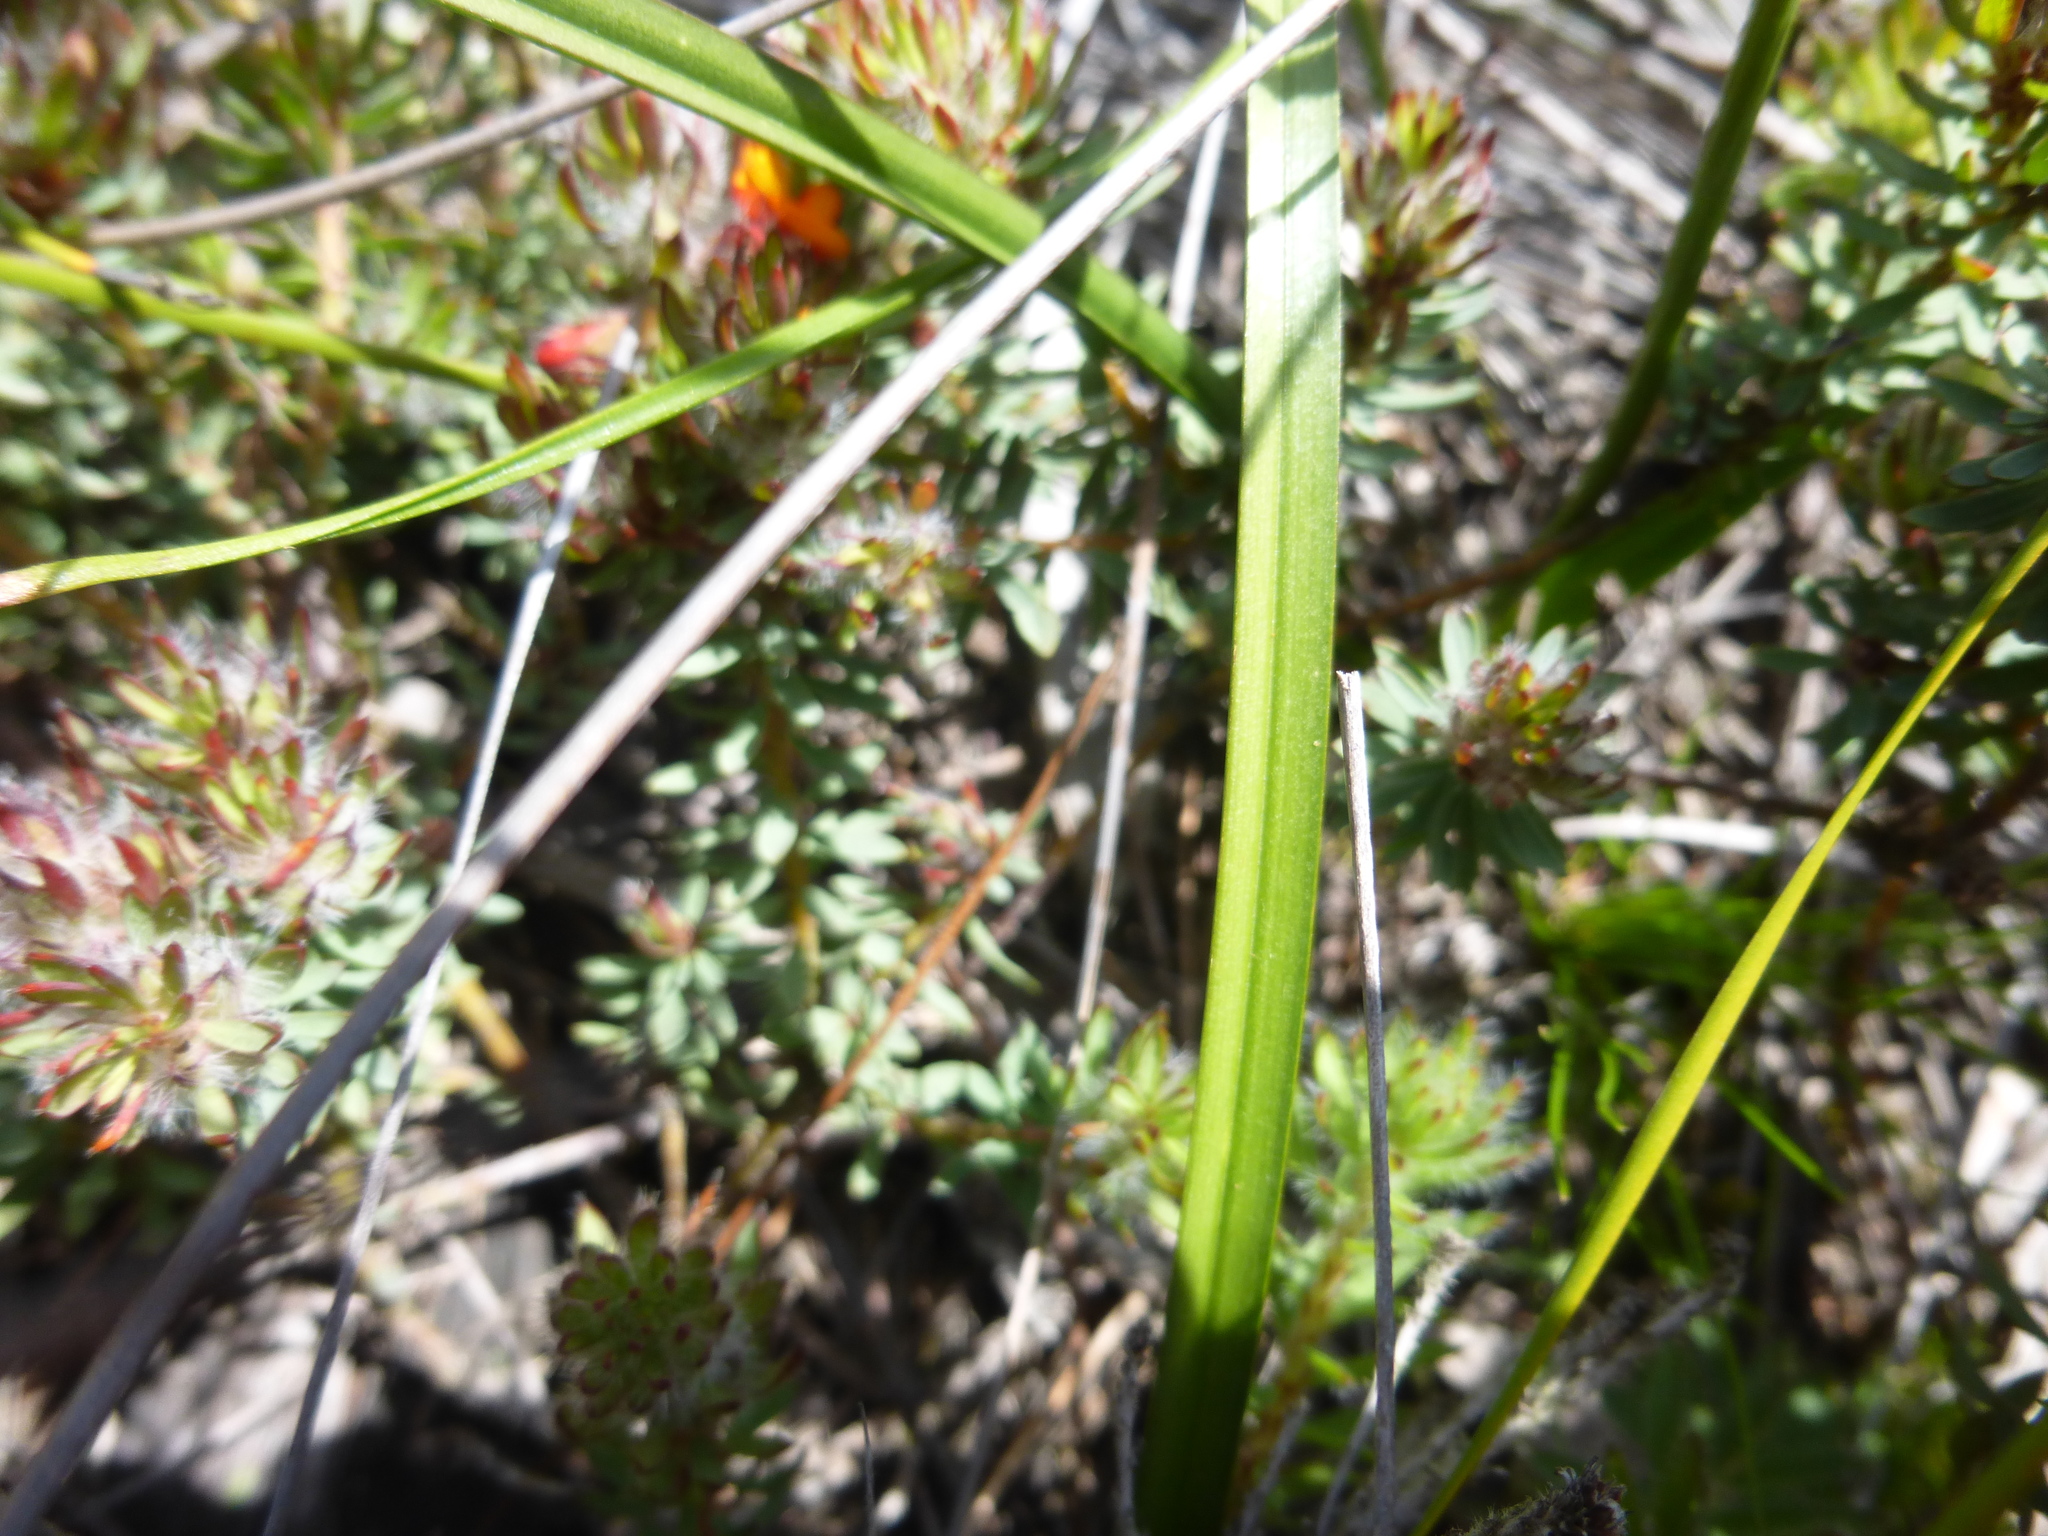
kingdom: Plantae
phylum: Tracheophyta
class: Liliopsida
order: Liliales
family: Colchicaceae
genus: Burchardia
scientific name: Burchardia umbellata
